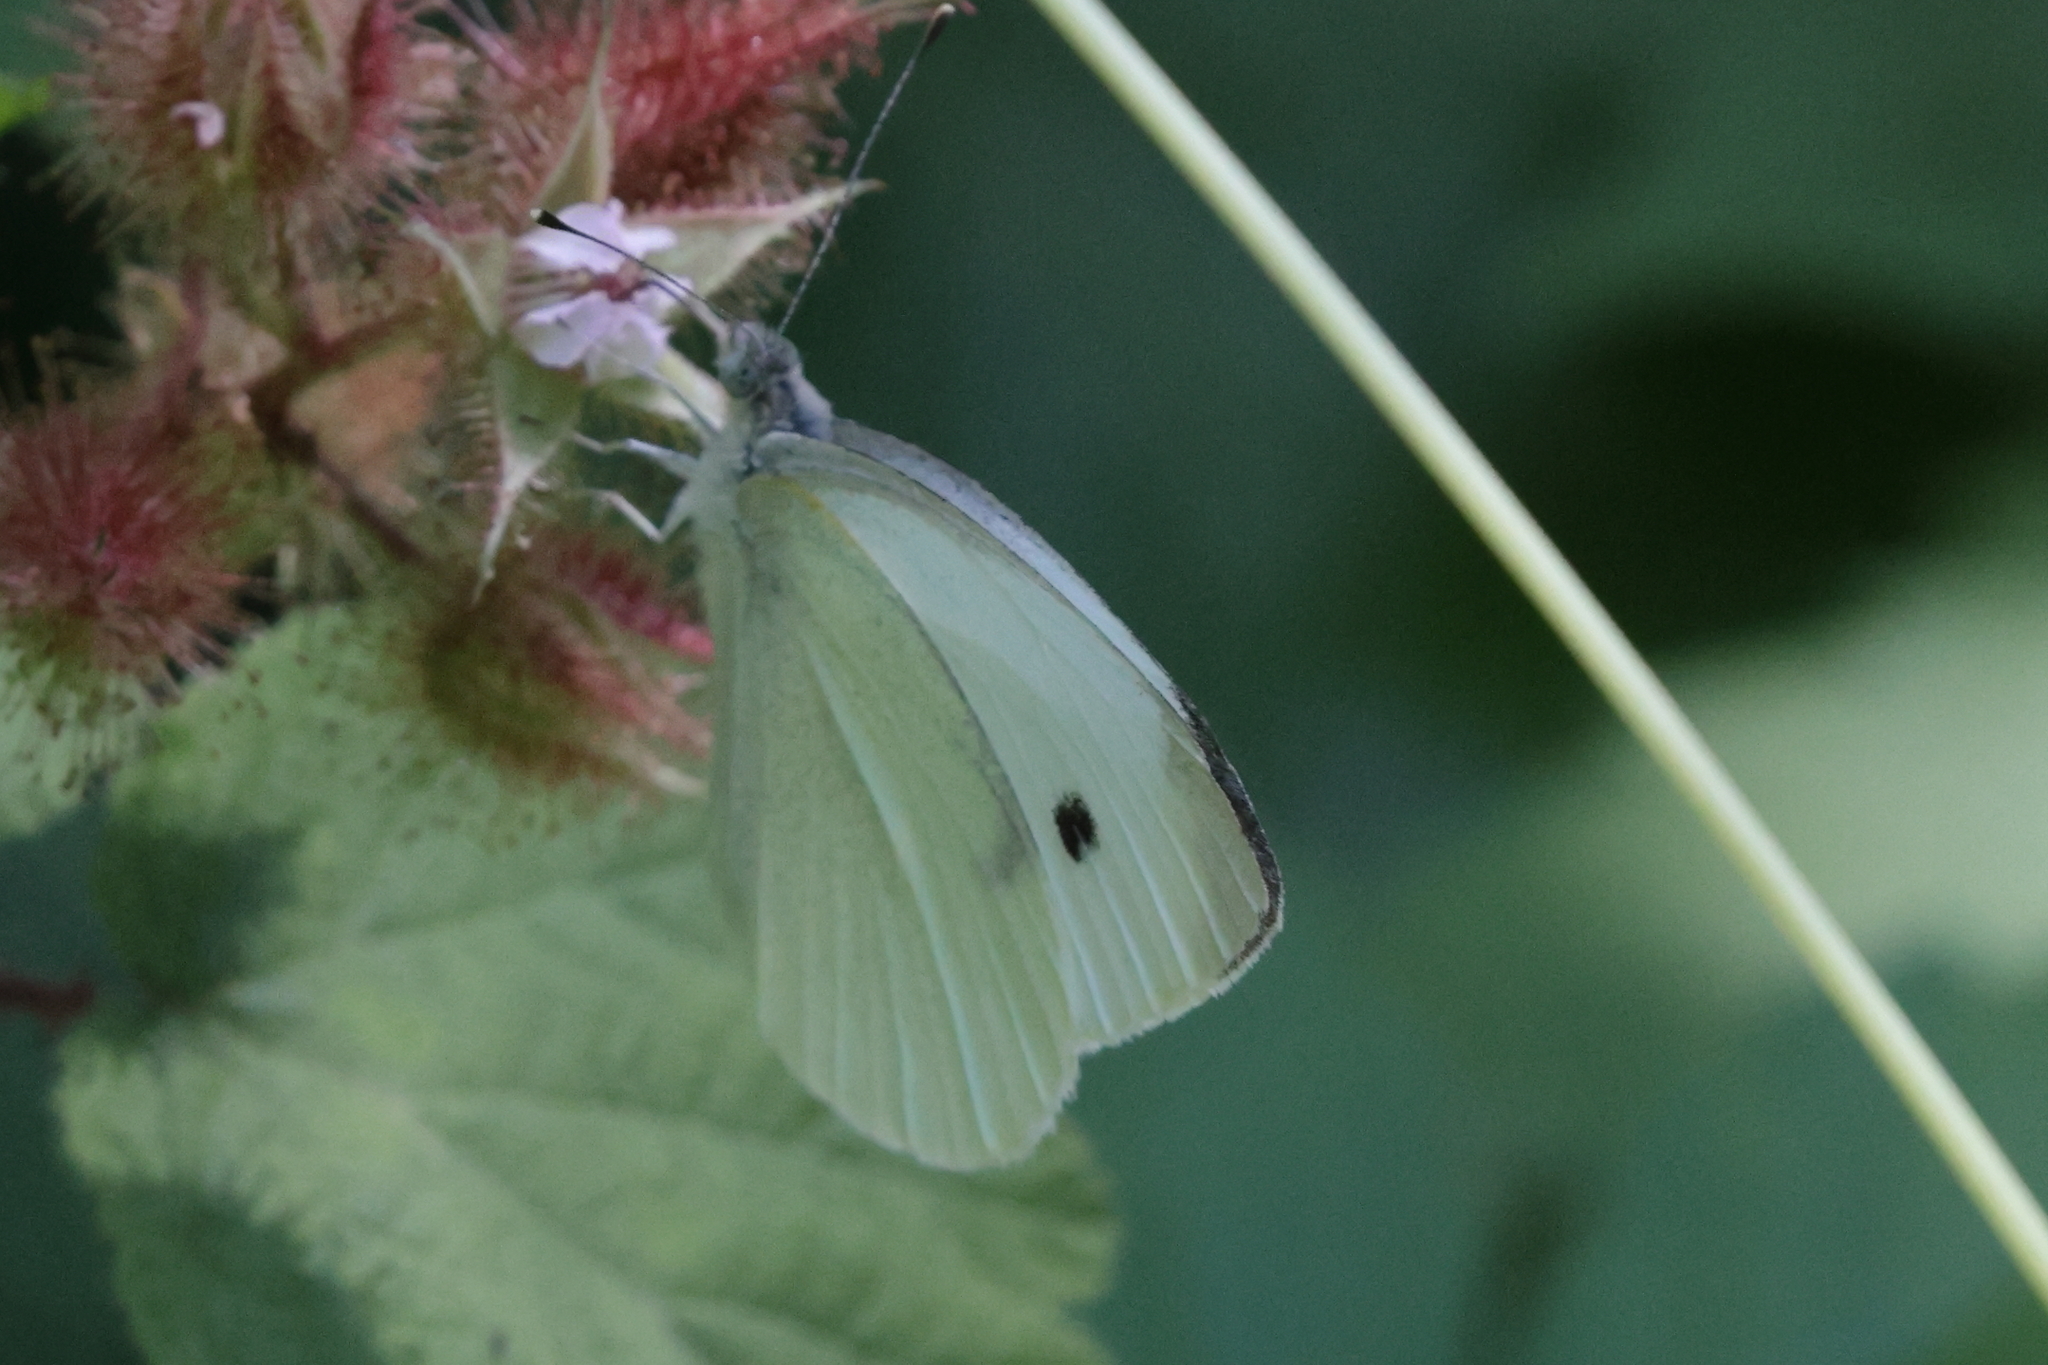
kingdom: Animalia
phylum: Arthropoda
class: Insecta
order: Lepidoptera
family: Pieridae
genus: Pieris
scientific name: Pieris rapae
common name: Small white
